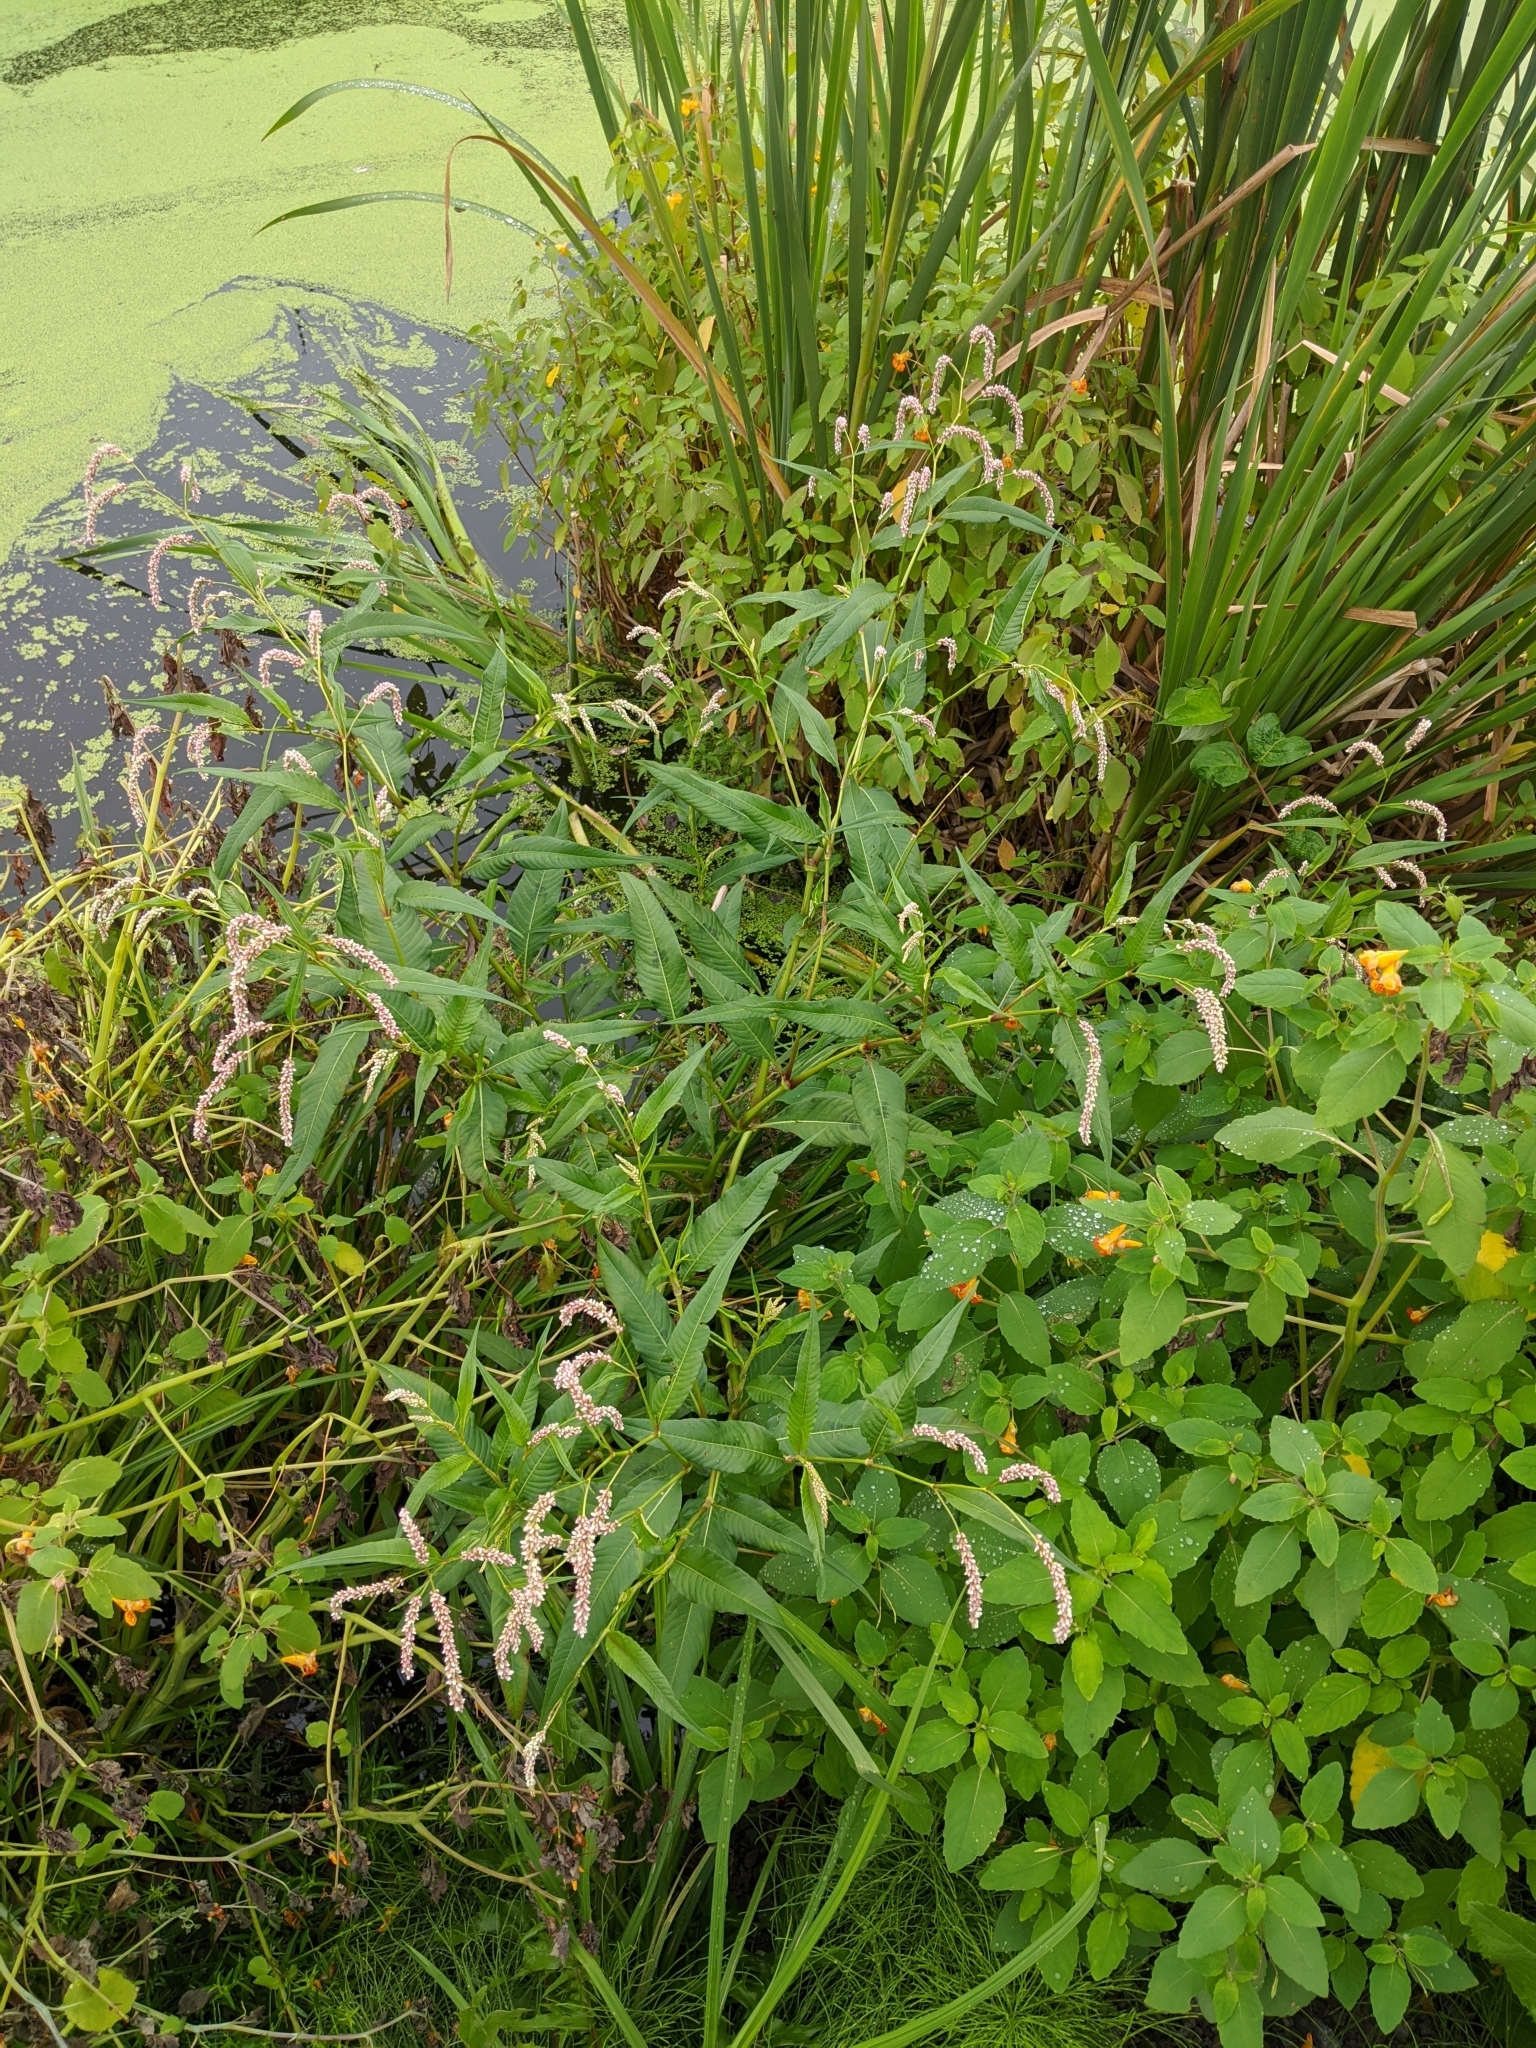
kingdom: Plantae
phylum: Tracheophyta
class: Magnoliopsida
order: Caryophyllales
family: Polygonaceae
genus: Persicaria
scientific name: Persicaria lapathifolia
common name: Curlytop knotweed
